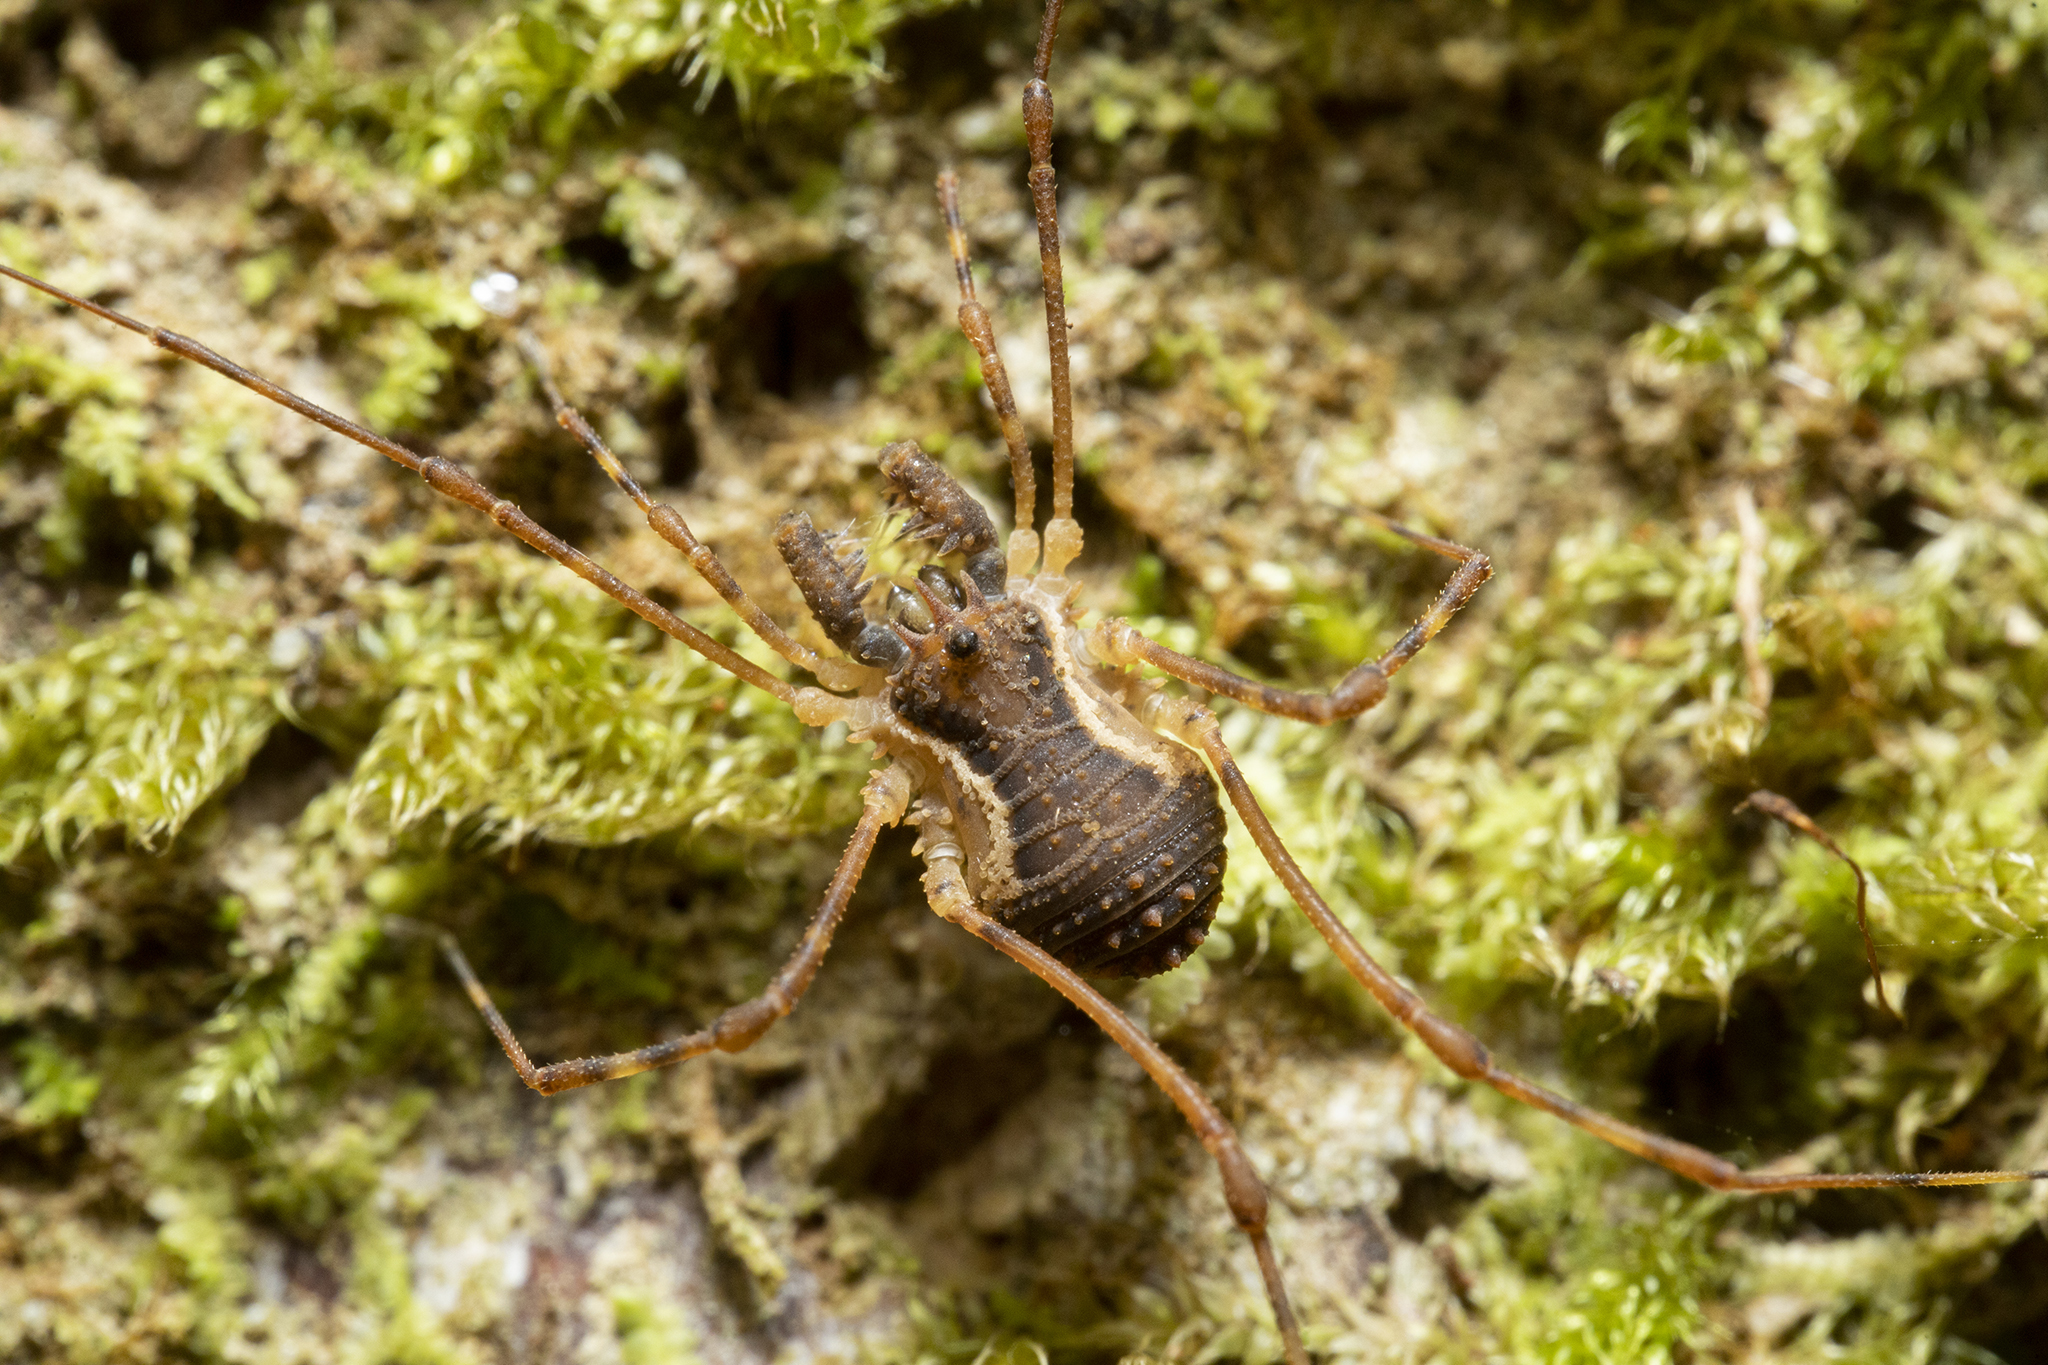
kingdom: Animalia
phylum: Arthropoda
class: Arachnida
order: Opiliones
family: Triaenonychidae
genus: Algidia
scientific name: Algidia interrupta
